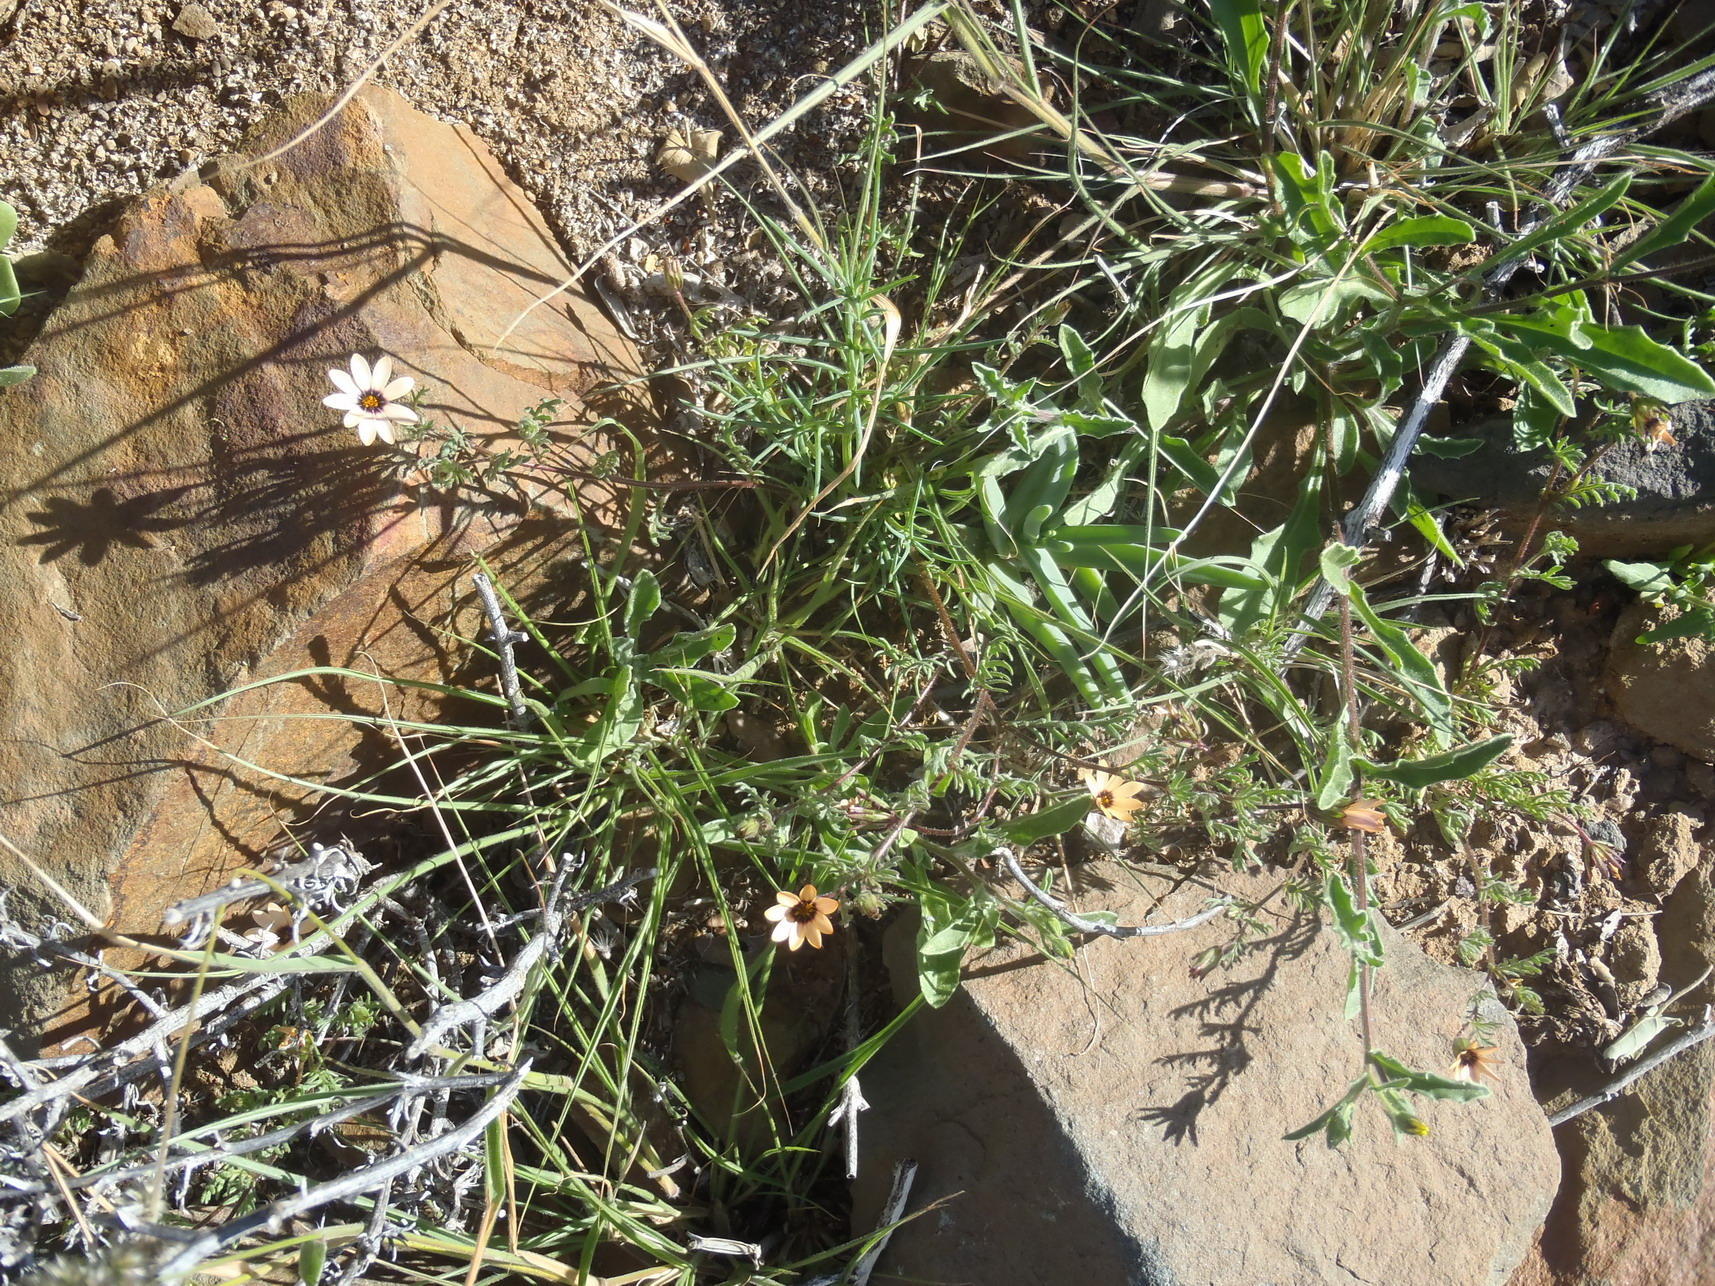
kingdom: Plantae
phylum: Tracheophyta
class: Magnoliopsida
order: Asterales
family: Asteraceae
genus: Dimorphotheca
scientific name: Dimorphotheca pinnata
